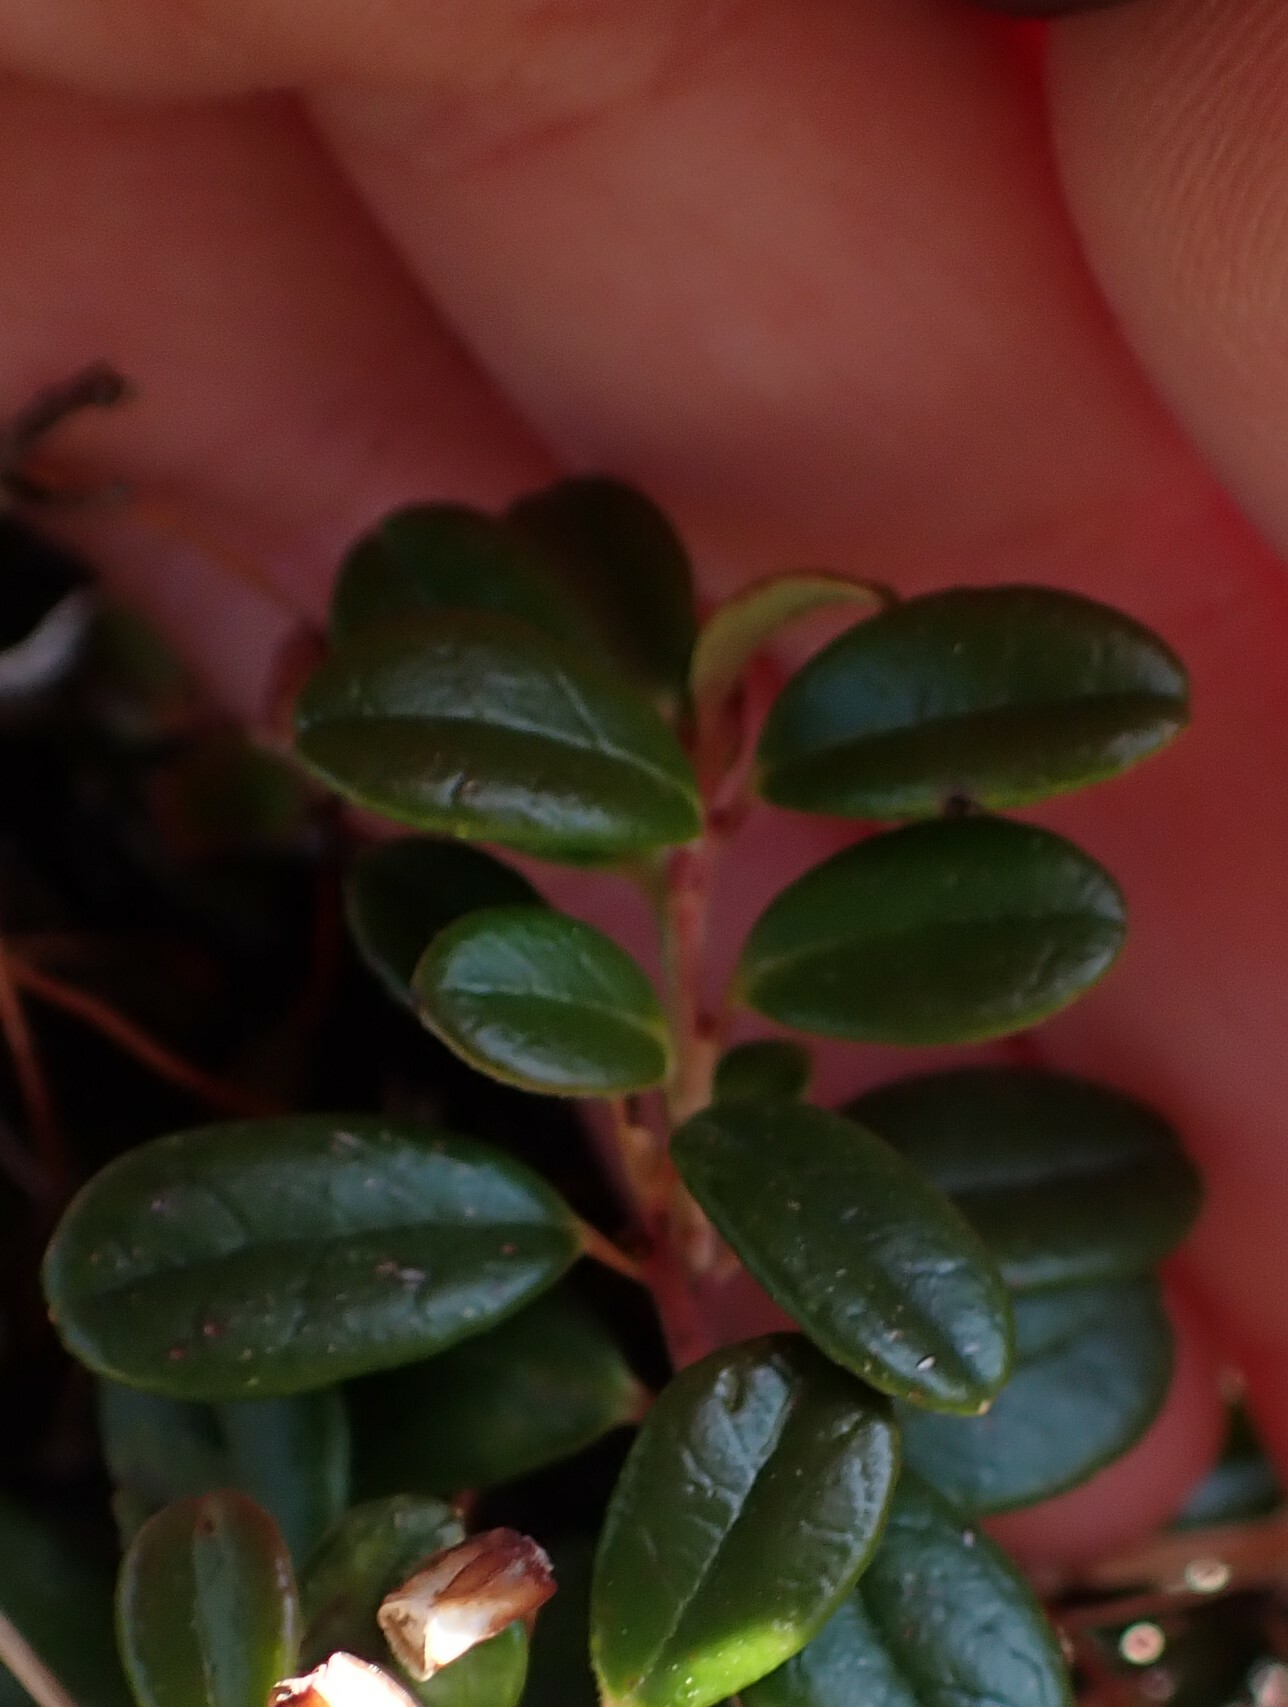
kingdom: Plantae
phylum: Tracheophyta
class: Magnoliopsida
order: Ericales
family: Ericaceae
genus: Vaccinium
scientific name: Vaccinium vitis-idaea
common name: Cowberry
